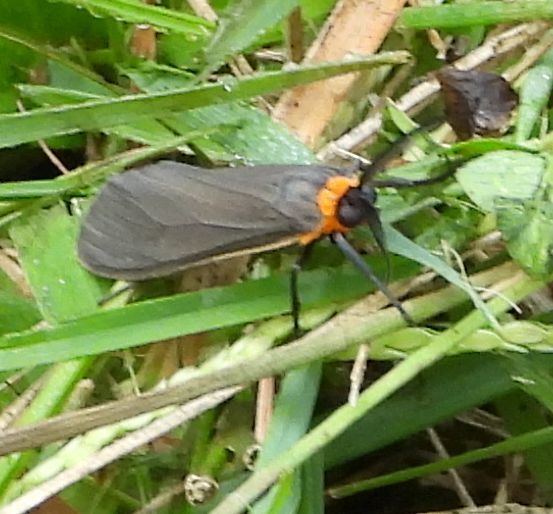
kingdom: Animalia
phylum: Arthropoda
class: Insecta
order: Lepidoptera
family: Erebidae
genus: Cisseps
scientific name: Cisseps fulvicollis
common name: Yellow-collared scape moth
